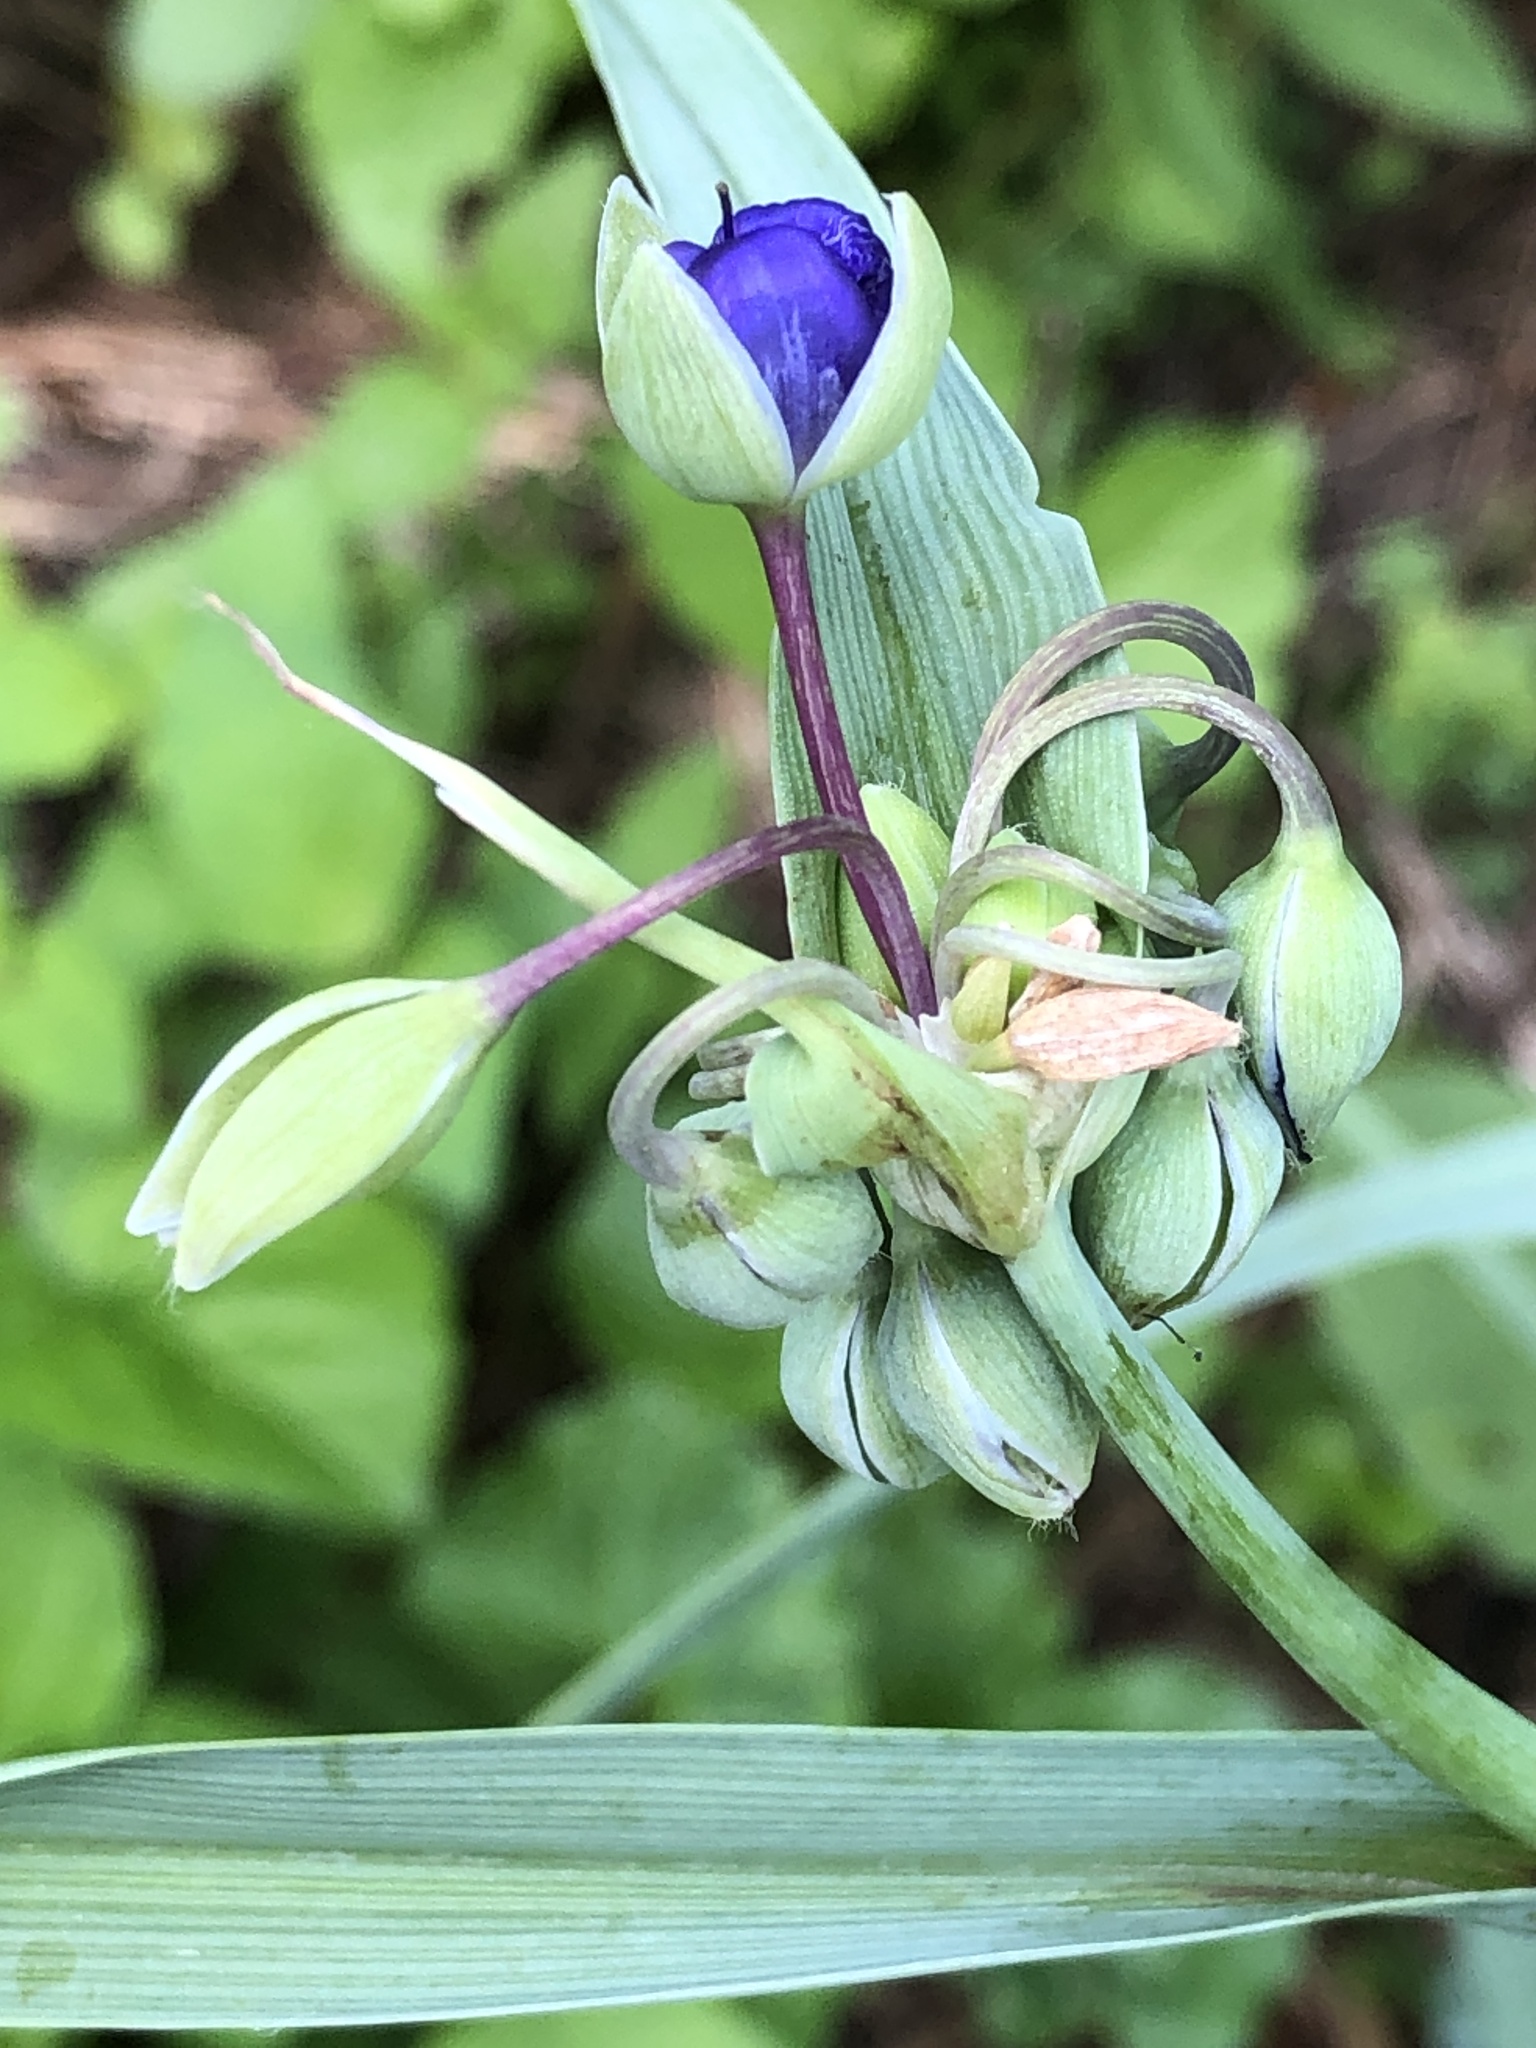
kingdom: Plantae
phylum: Tracheophyta
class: Liliopsida
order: Commelinales
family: Commelinaceae
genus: Tradescantia
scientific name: Tradescantia ohiensis
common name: Ohio spiderwort
